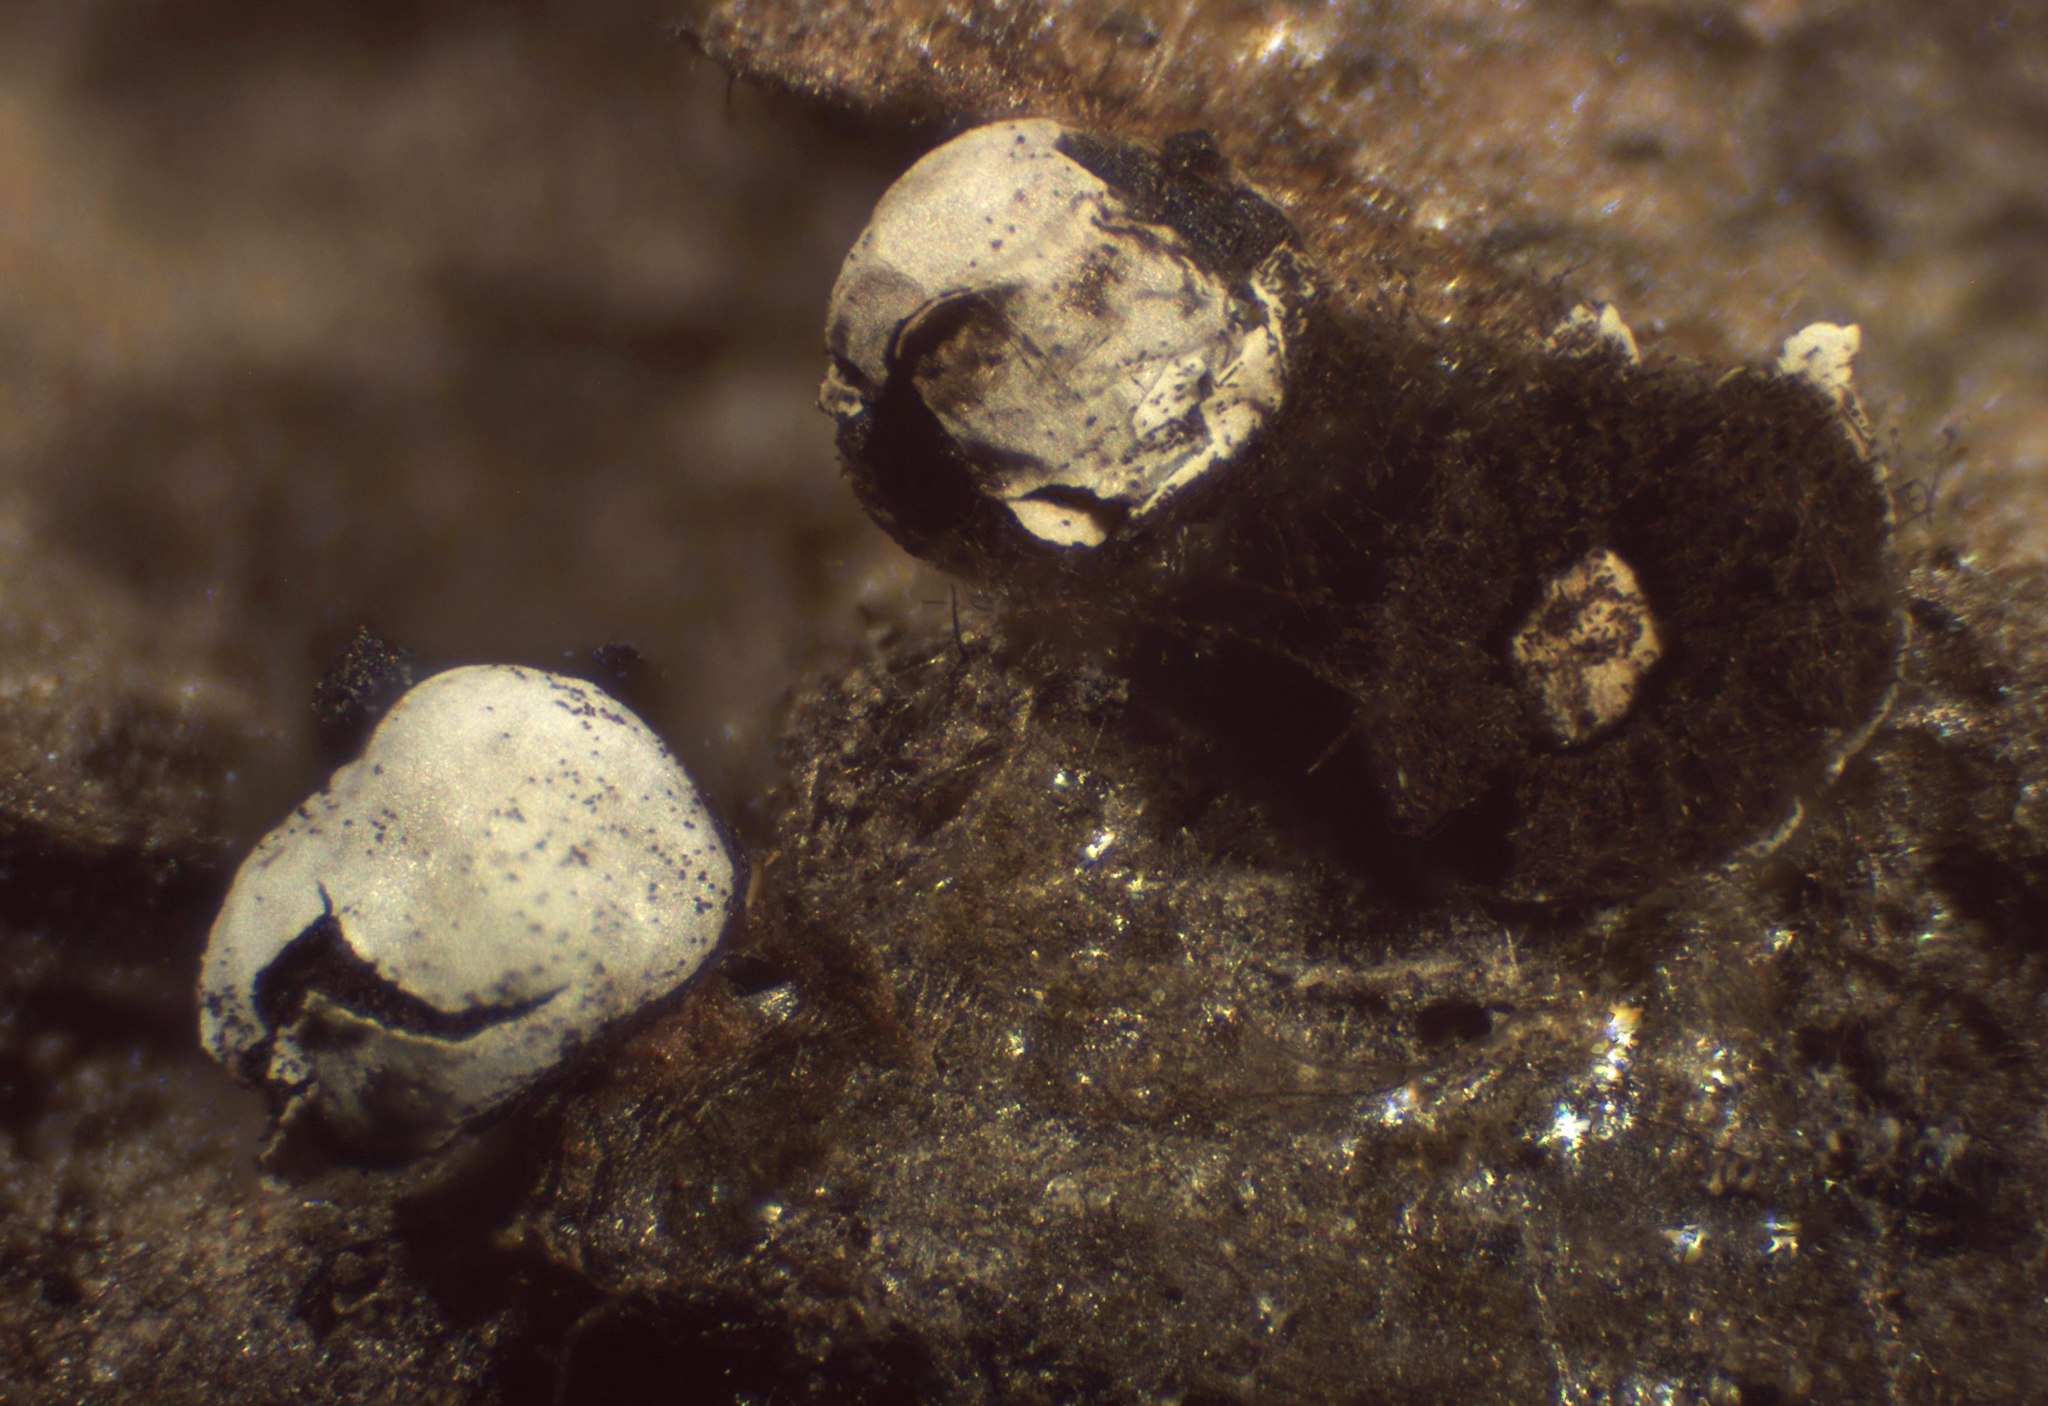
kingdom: Protozoa
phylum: Mycetozoa
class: Myxomycetes
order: Physarales
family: Didymiaceae
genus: Diderma
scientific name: Diderma umbilicatum
